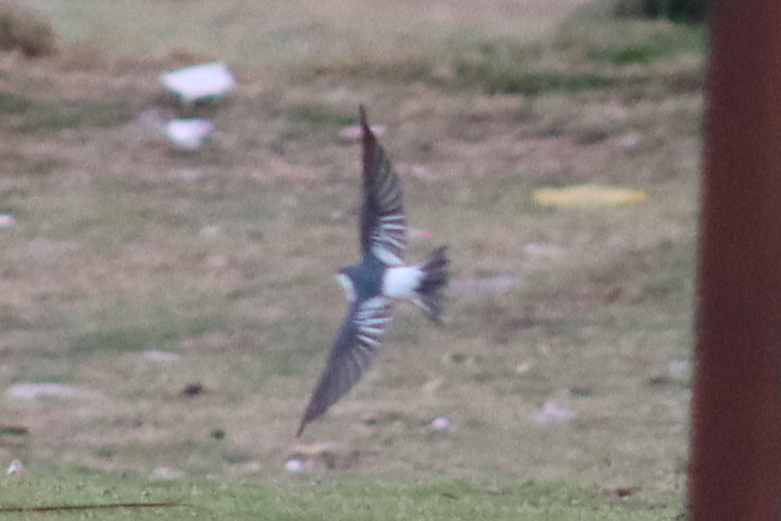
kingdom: Animalia
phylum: Chordata
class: Aves
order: Passeriformes
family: Hirundinidae
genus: Tachycineta
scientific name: Tachycineta albiventer
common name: White-winged swallow
